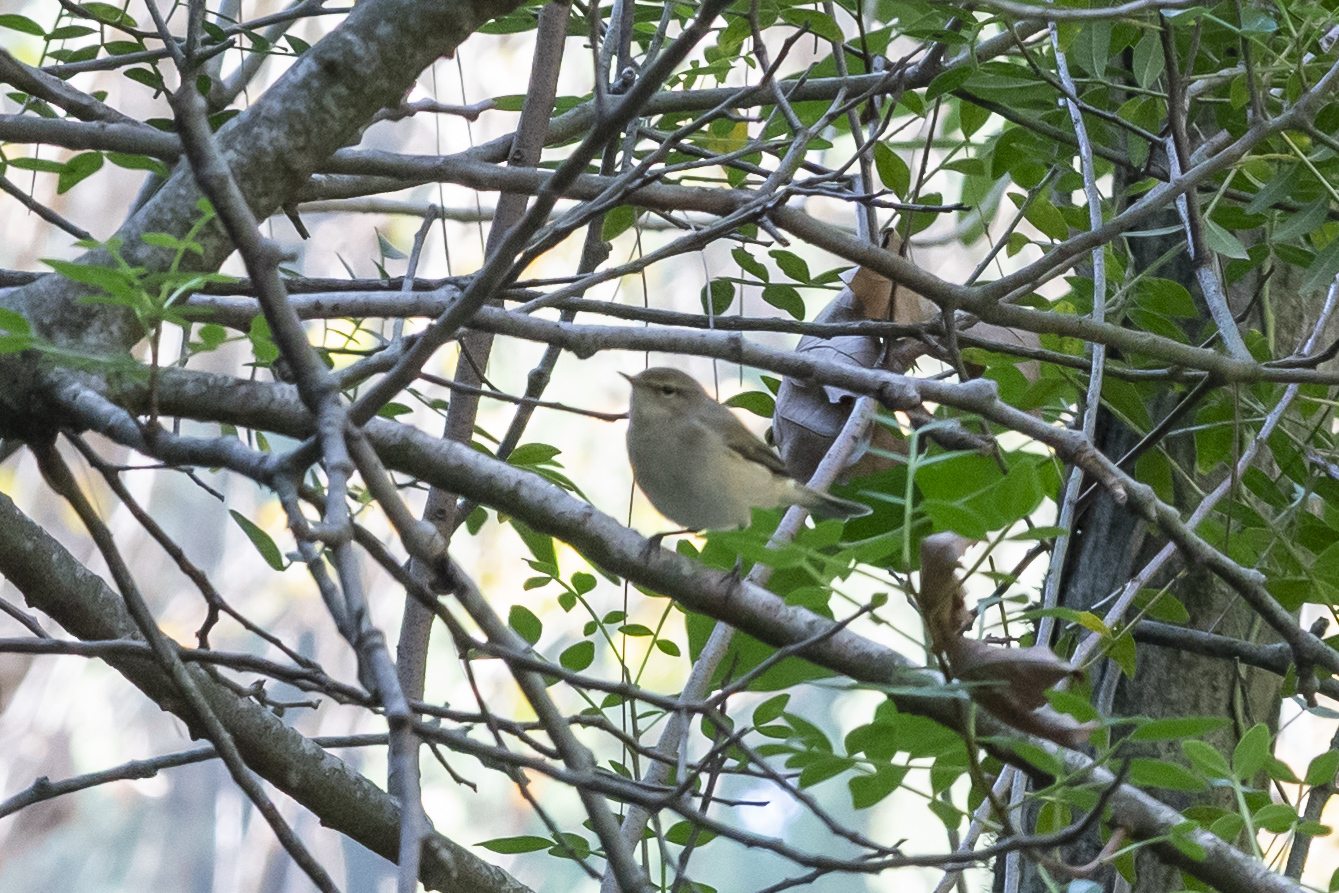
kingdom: Animalia
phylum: Chordata
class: Aves
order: Passeriformes
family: Phylloscopidae
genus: Phylloscopus
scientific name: Phylloscopus collybita
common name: Common chiffchaff
